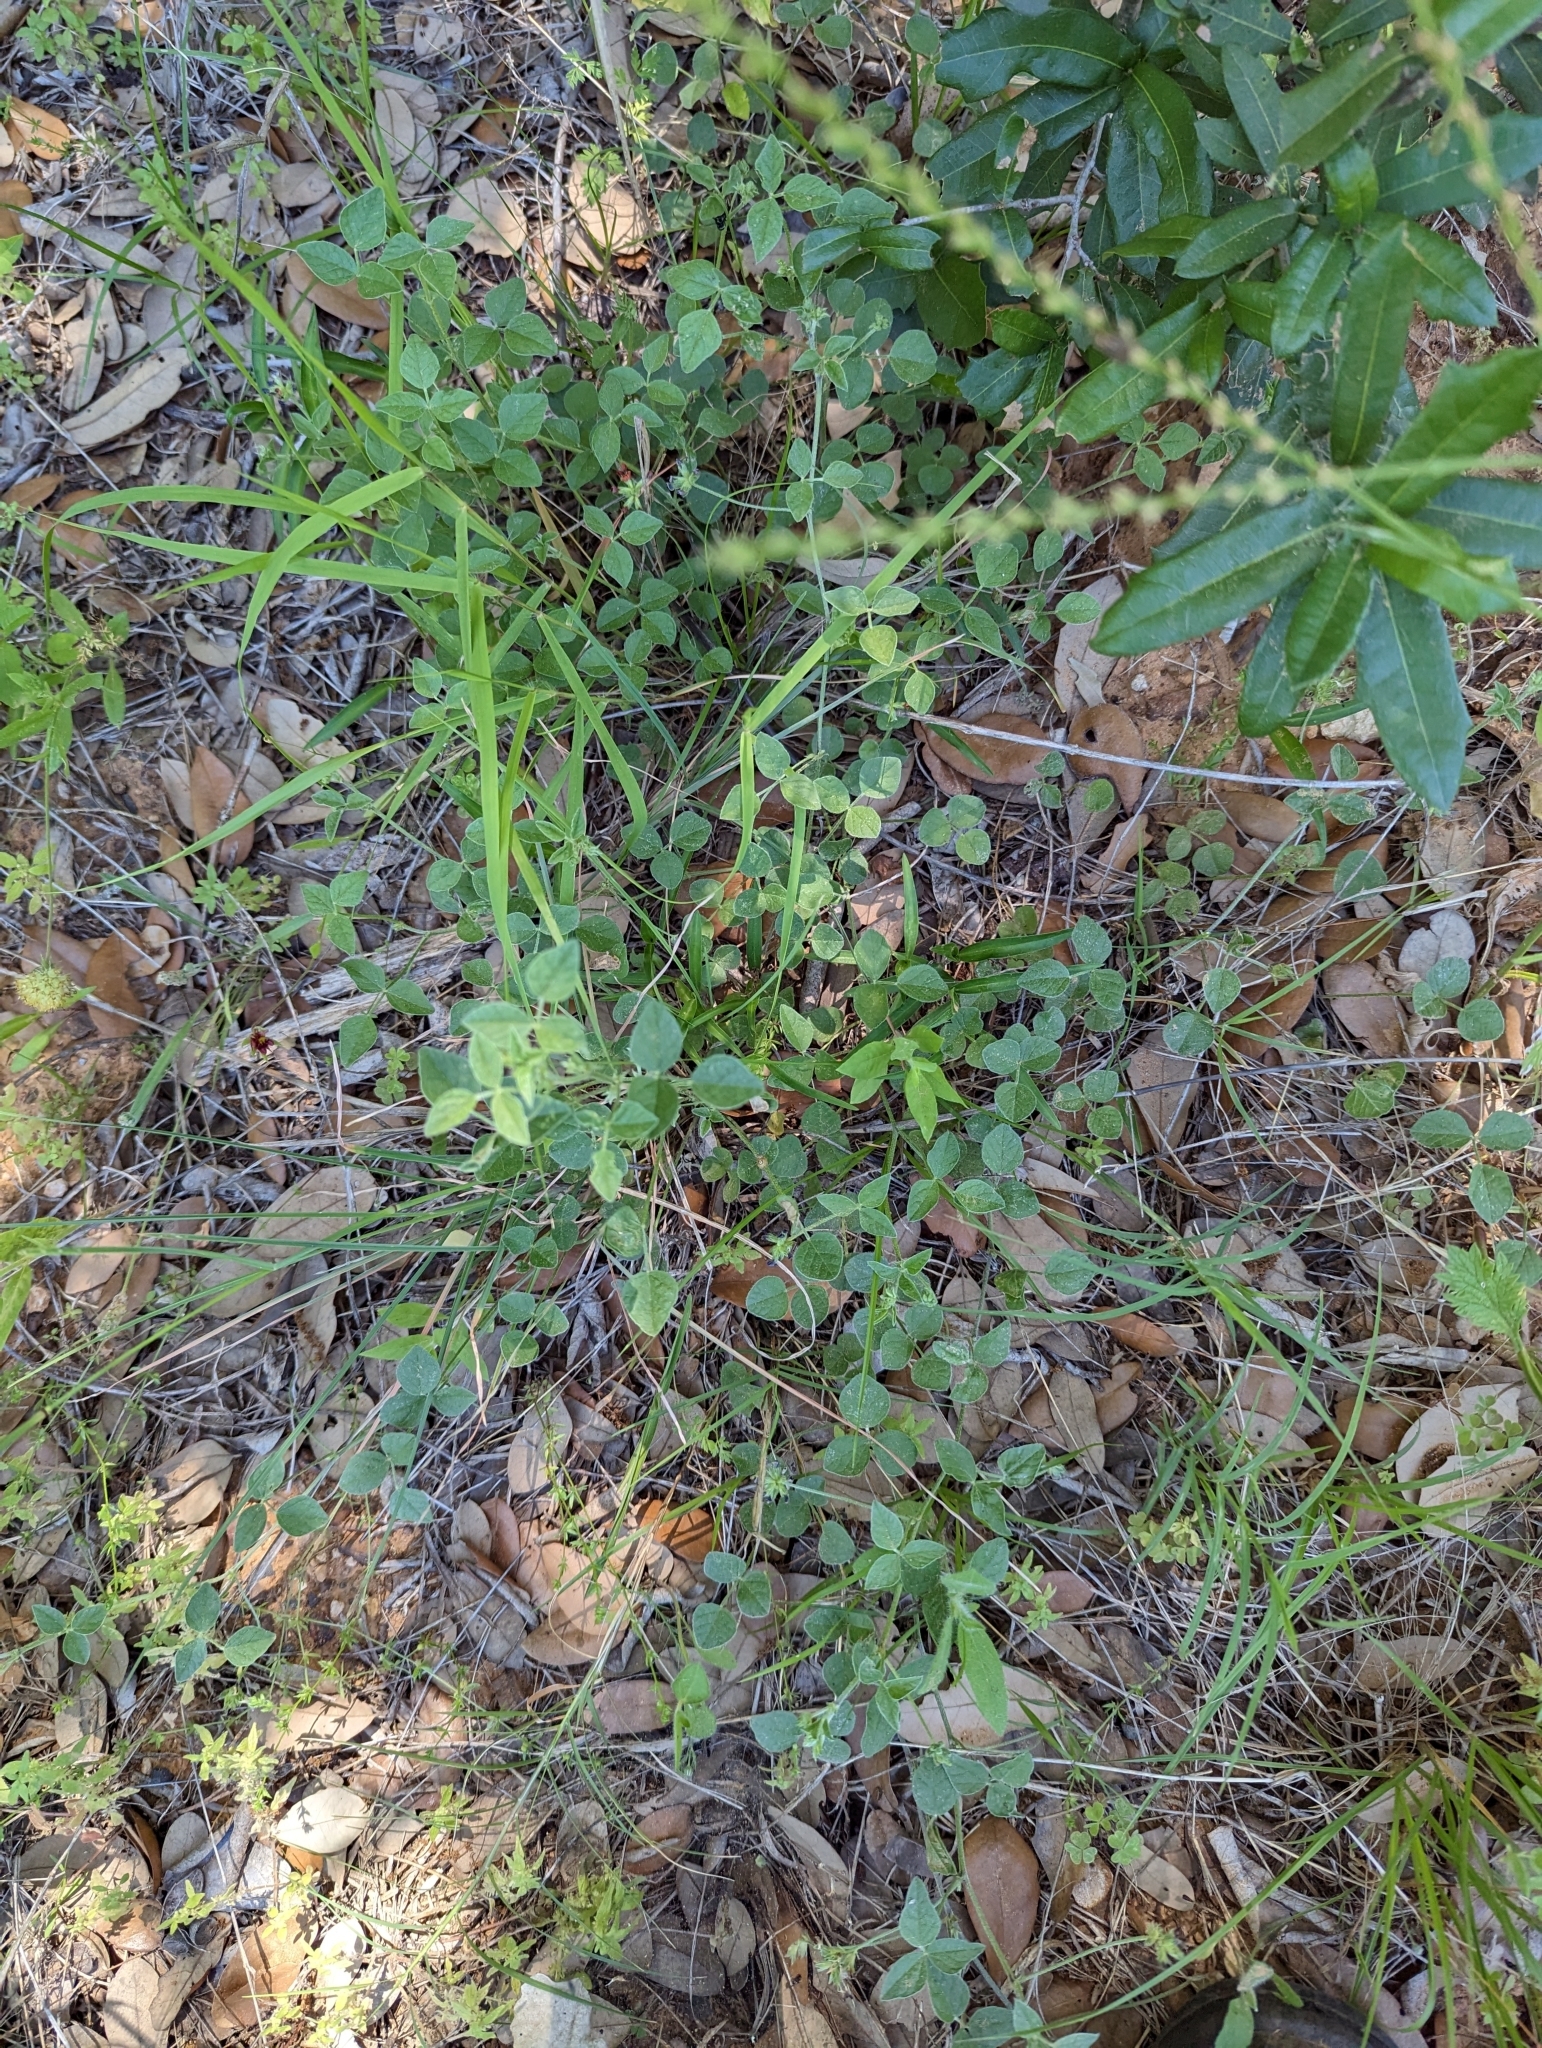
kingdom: Plantae
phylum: Tracheophyta
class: Magnoliopsida
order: Fabales
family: Fabaceae
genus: Pediomelum
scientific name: Pediomelum rhombifolium
